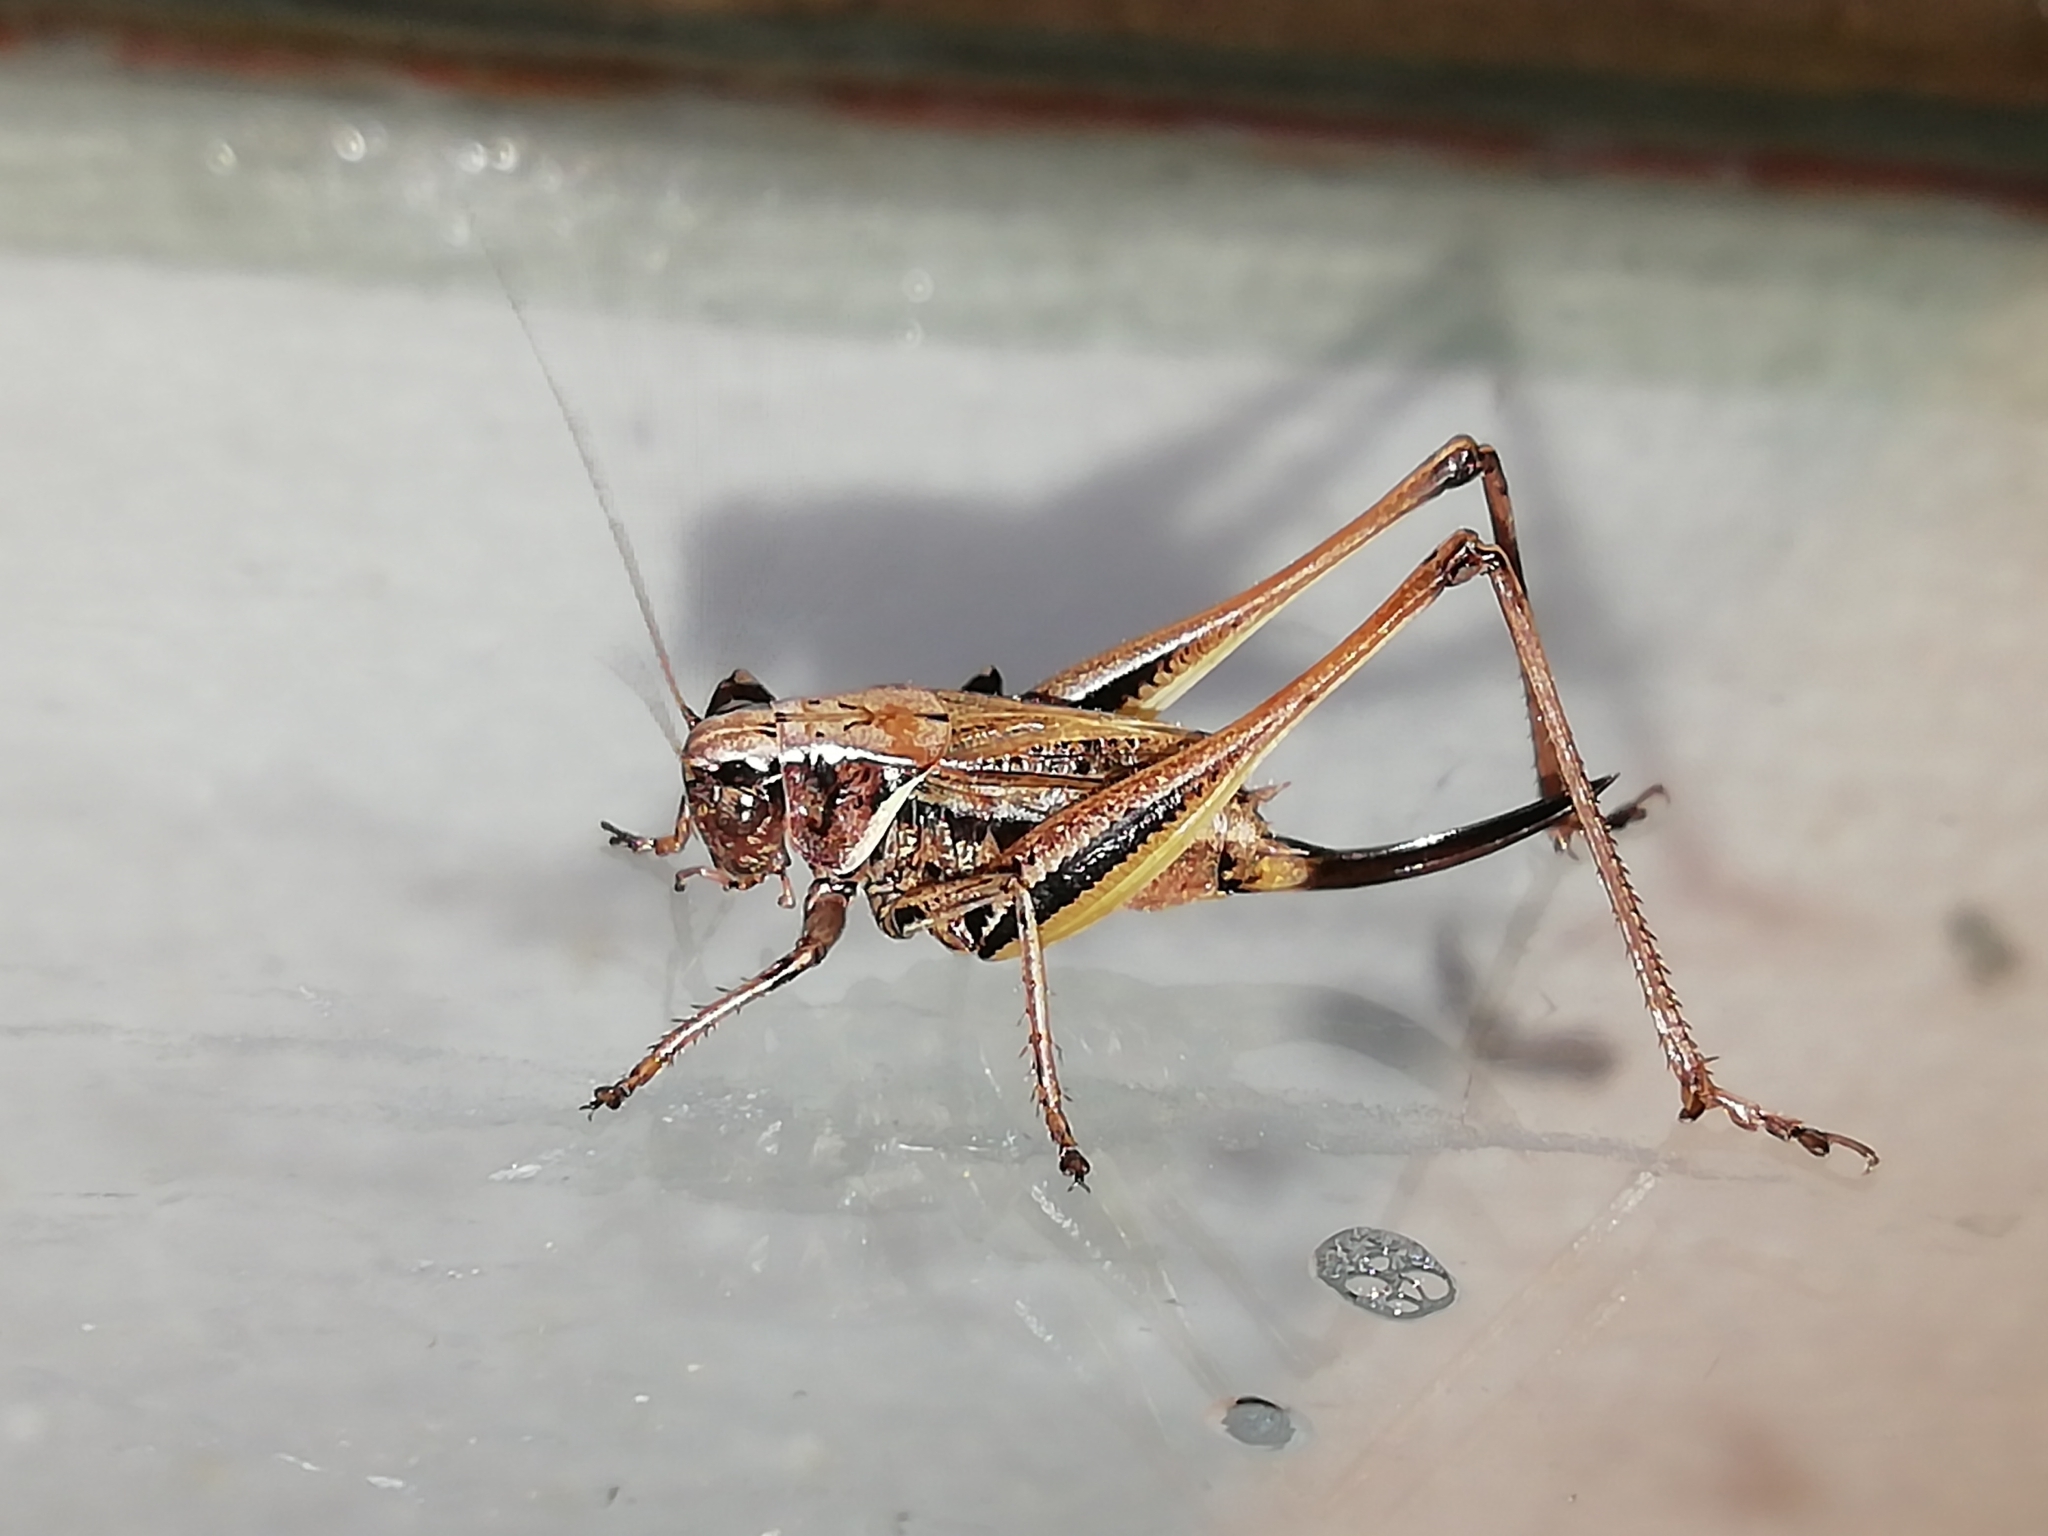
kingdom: Animalia
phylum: Arthropoda
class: Insecta
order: Orthoptera
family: Tettigoniidae
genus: Metrioptera
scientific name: Metrioptera brachyptera
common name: Bog bush-cricket
